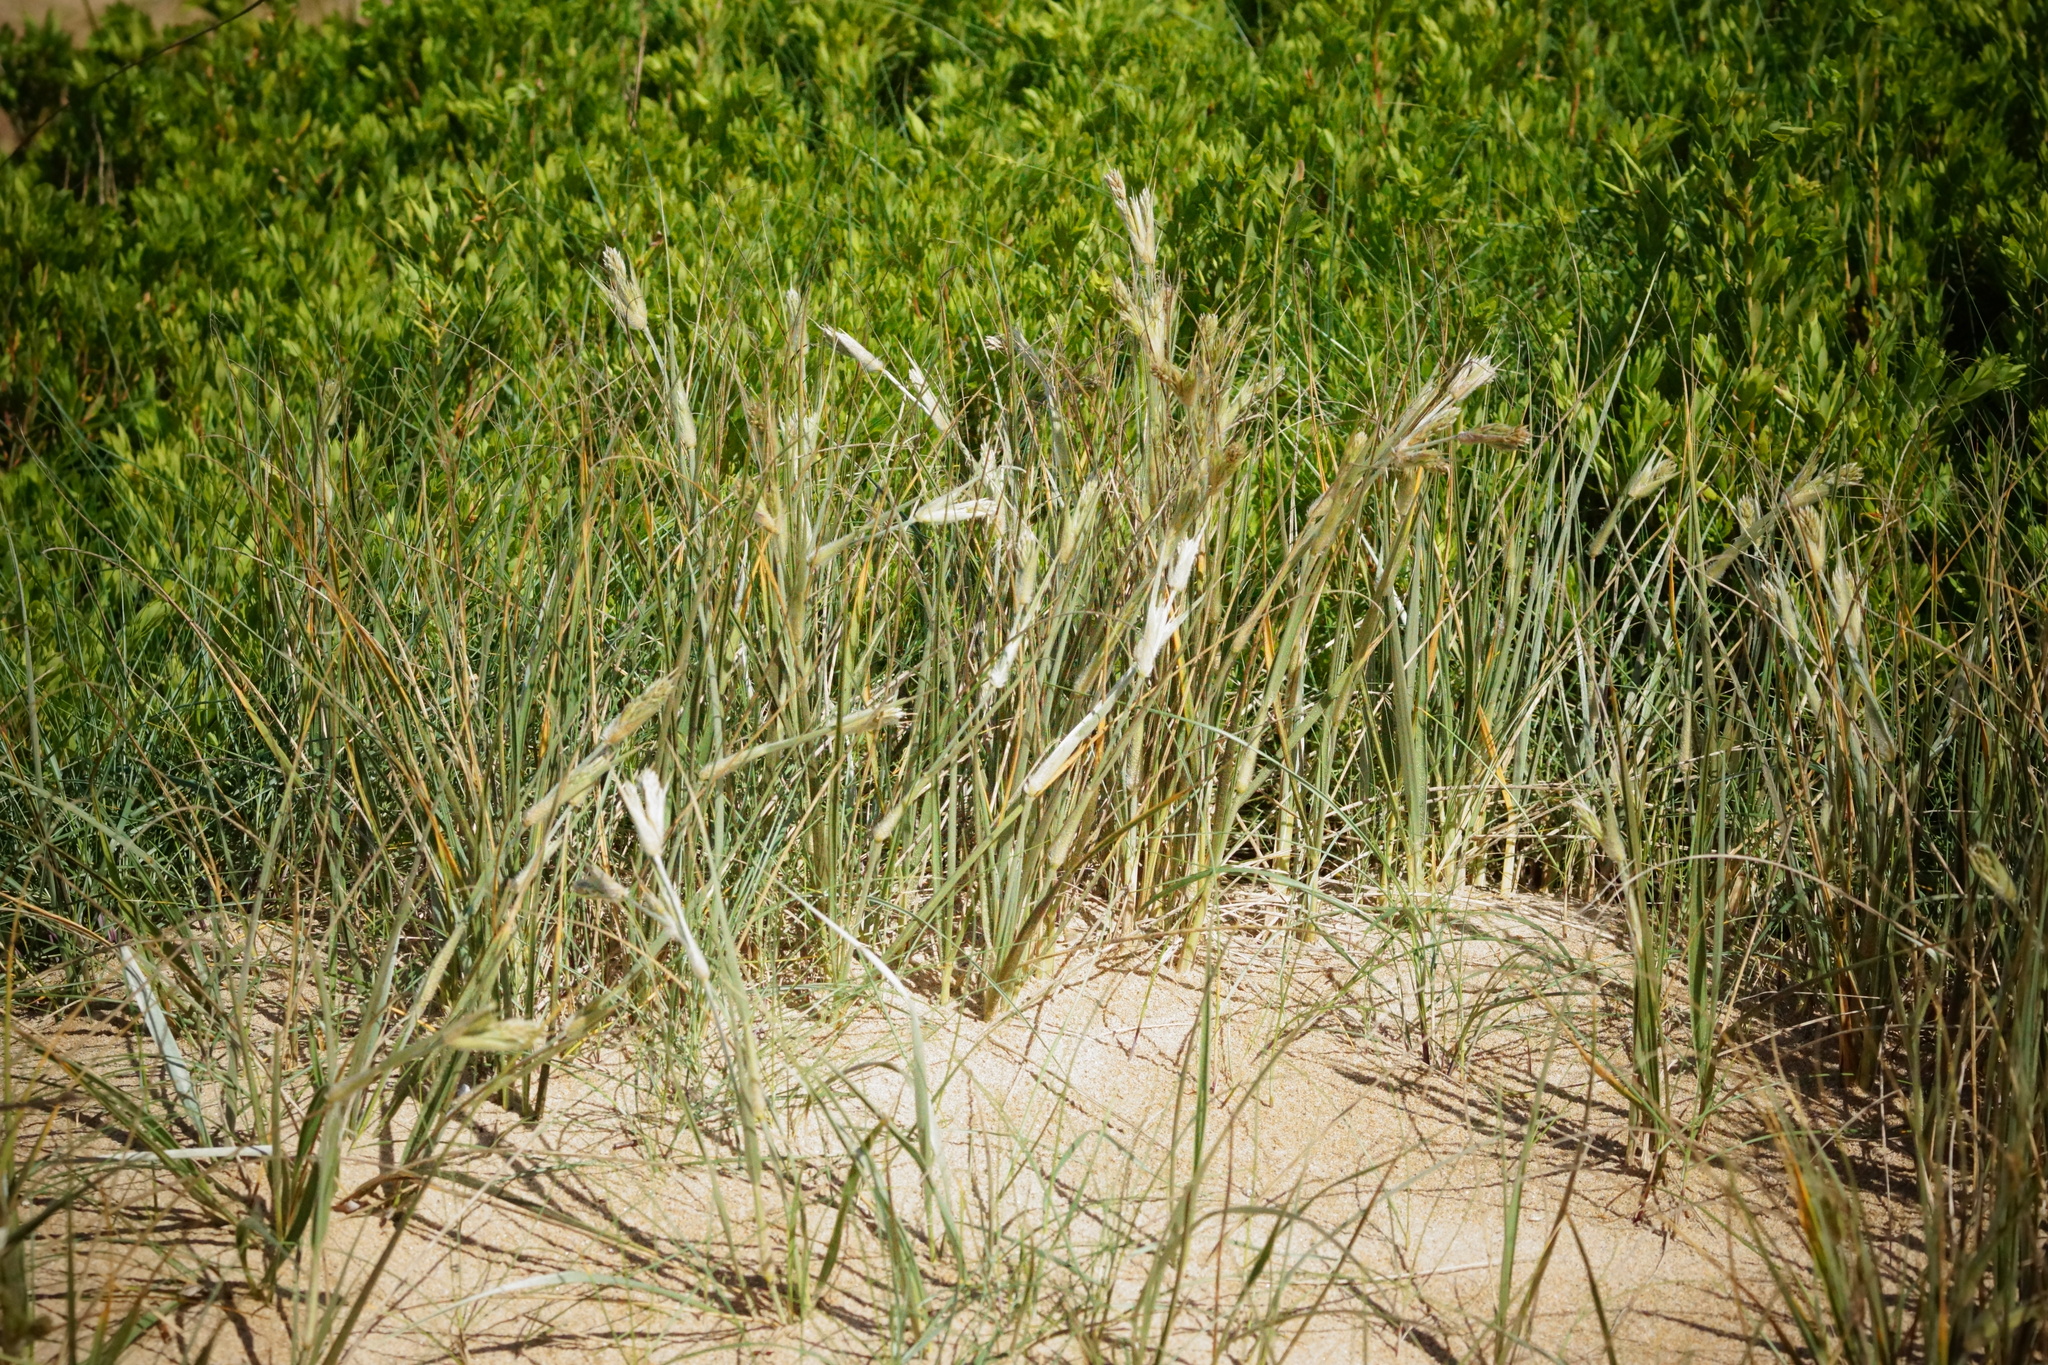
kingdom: Plantae
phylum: Tracheophyta
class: Liliopsida
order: Poales
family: Poaceae
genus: Spinifex
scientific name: Spinifex sericeus
